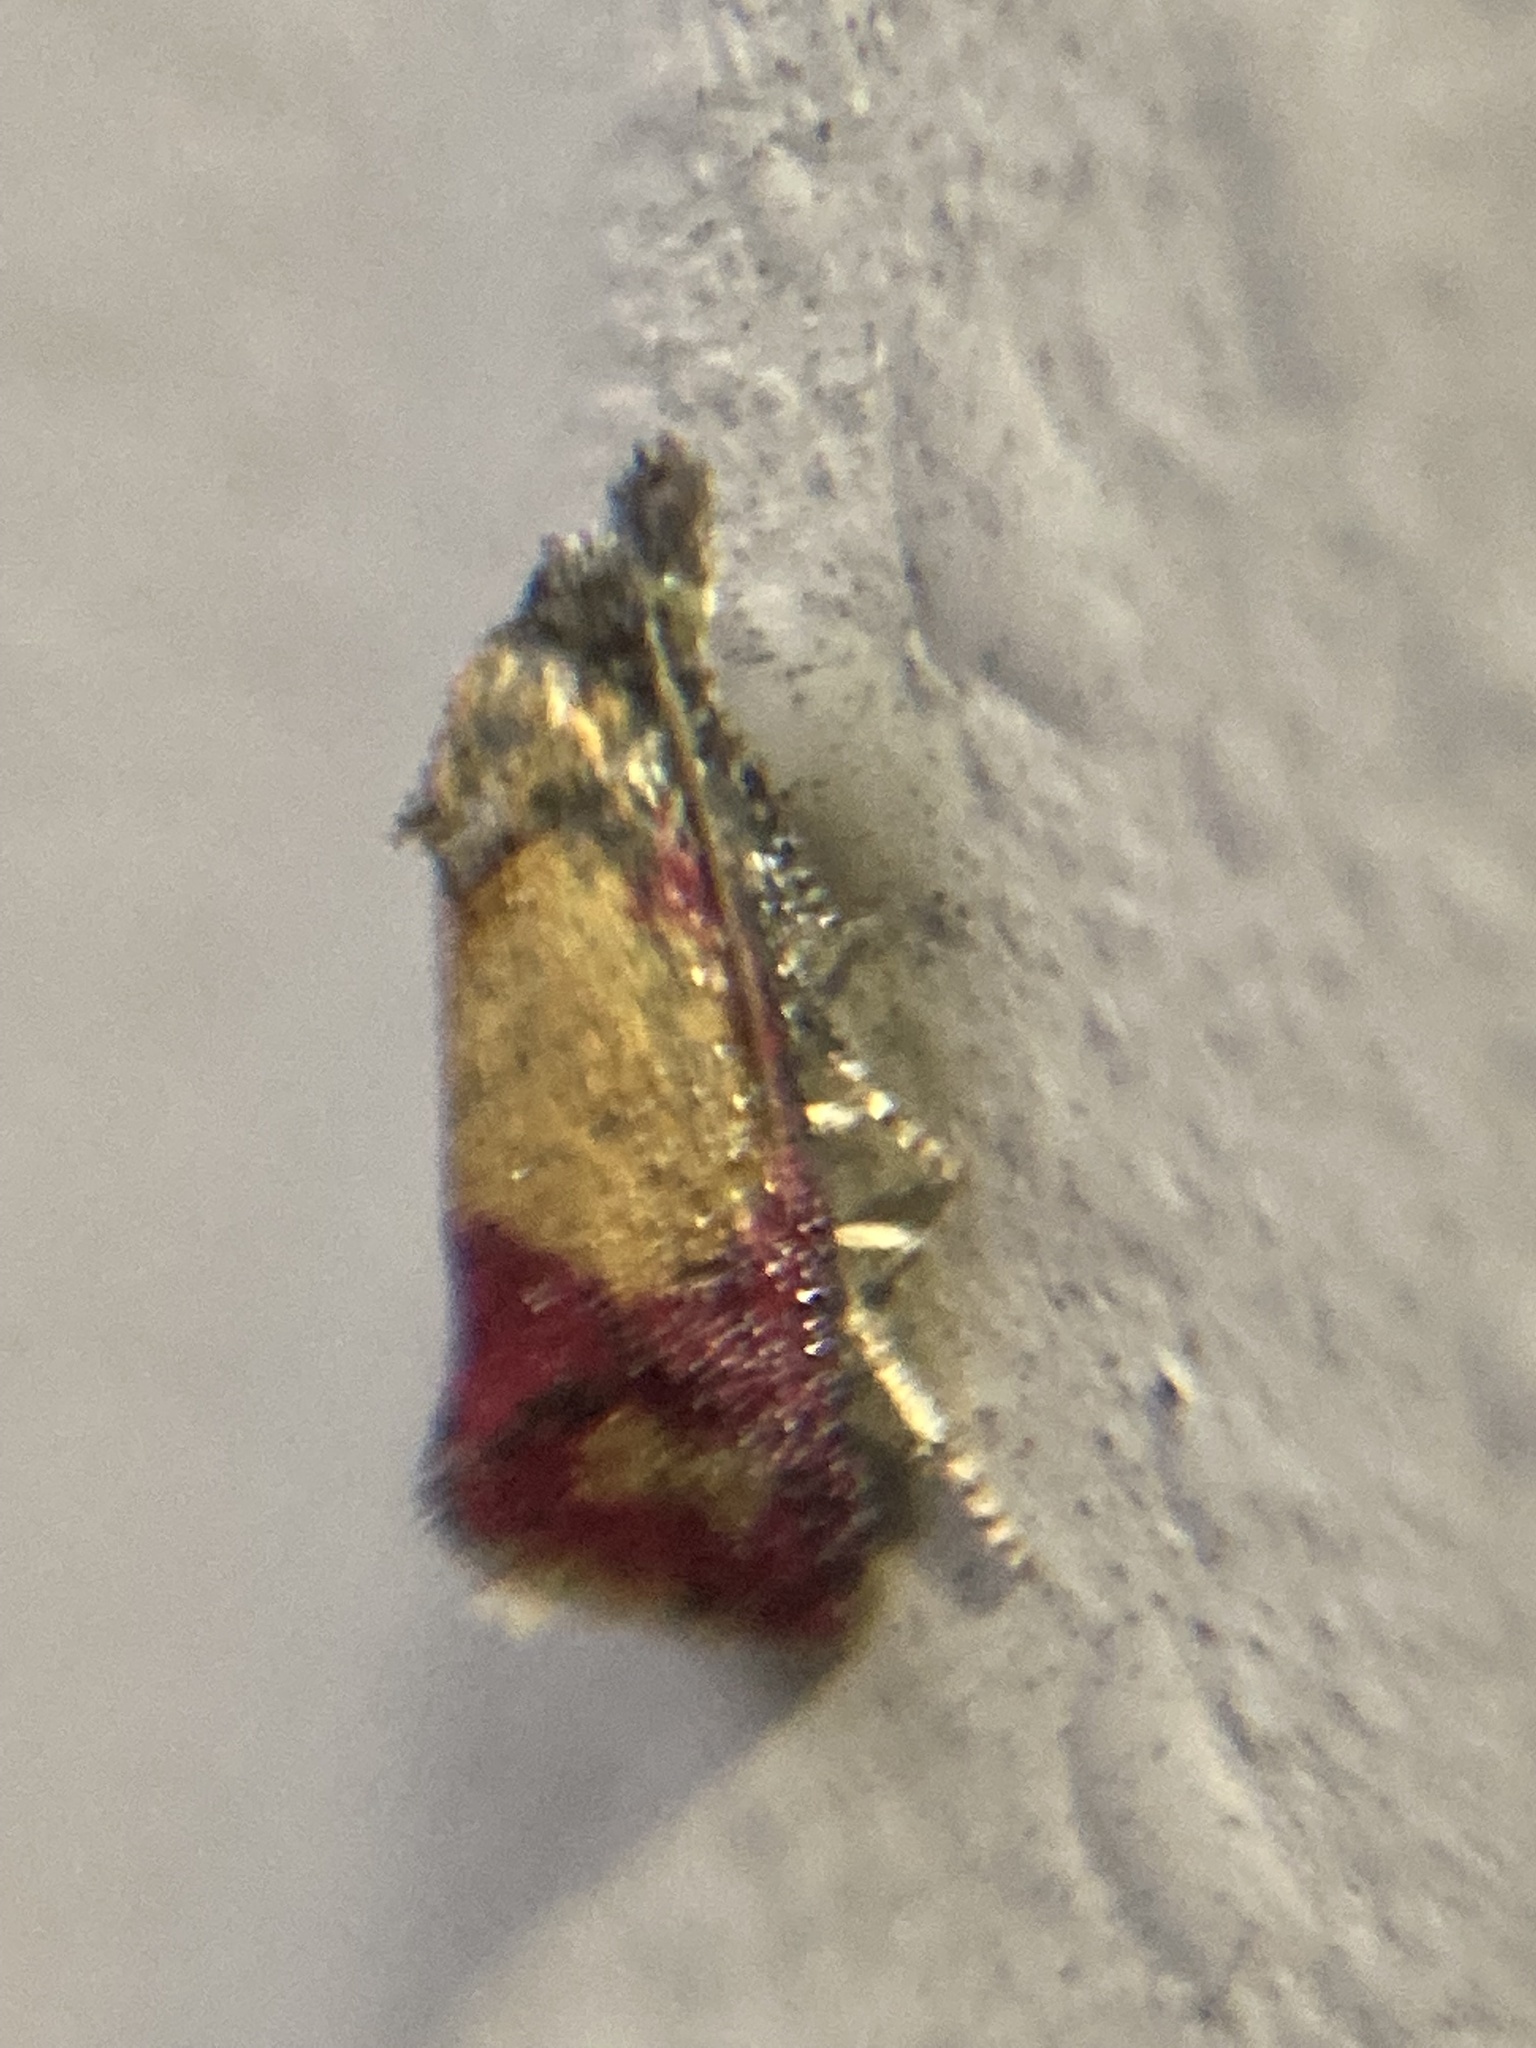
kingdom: Animalia
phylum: Arthropoda
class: Insecta
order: Lepidoptera
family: Tortricidae
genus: Conchylis
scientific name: Conchylis oenotherana
